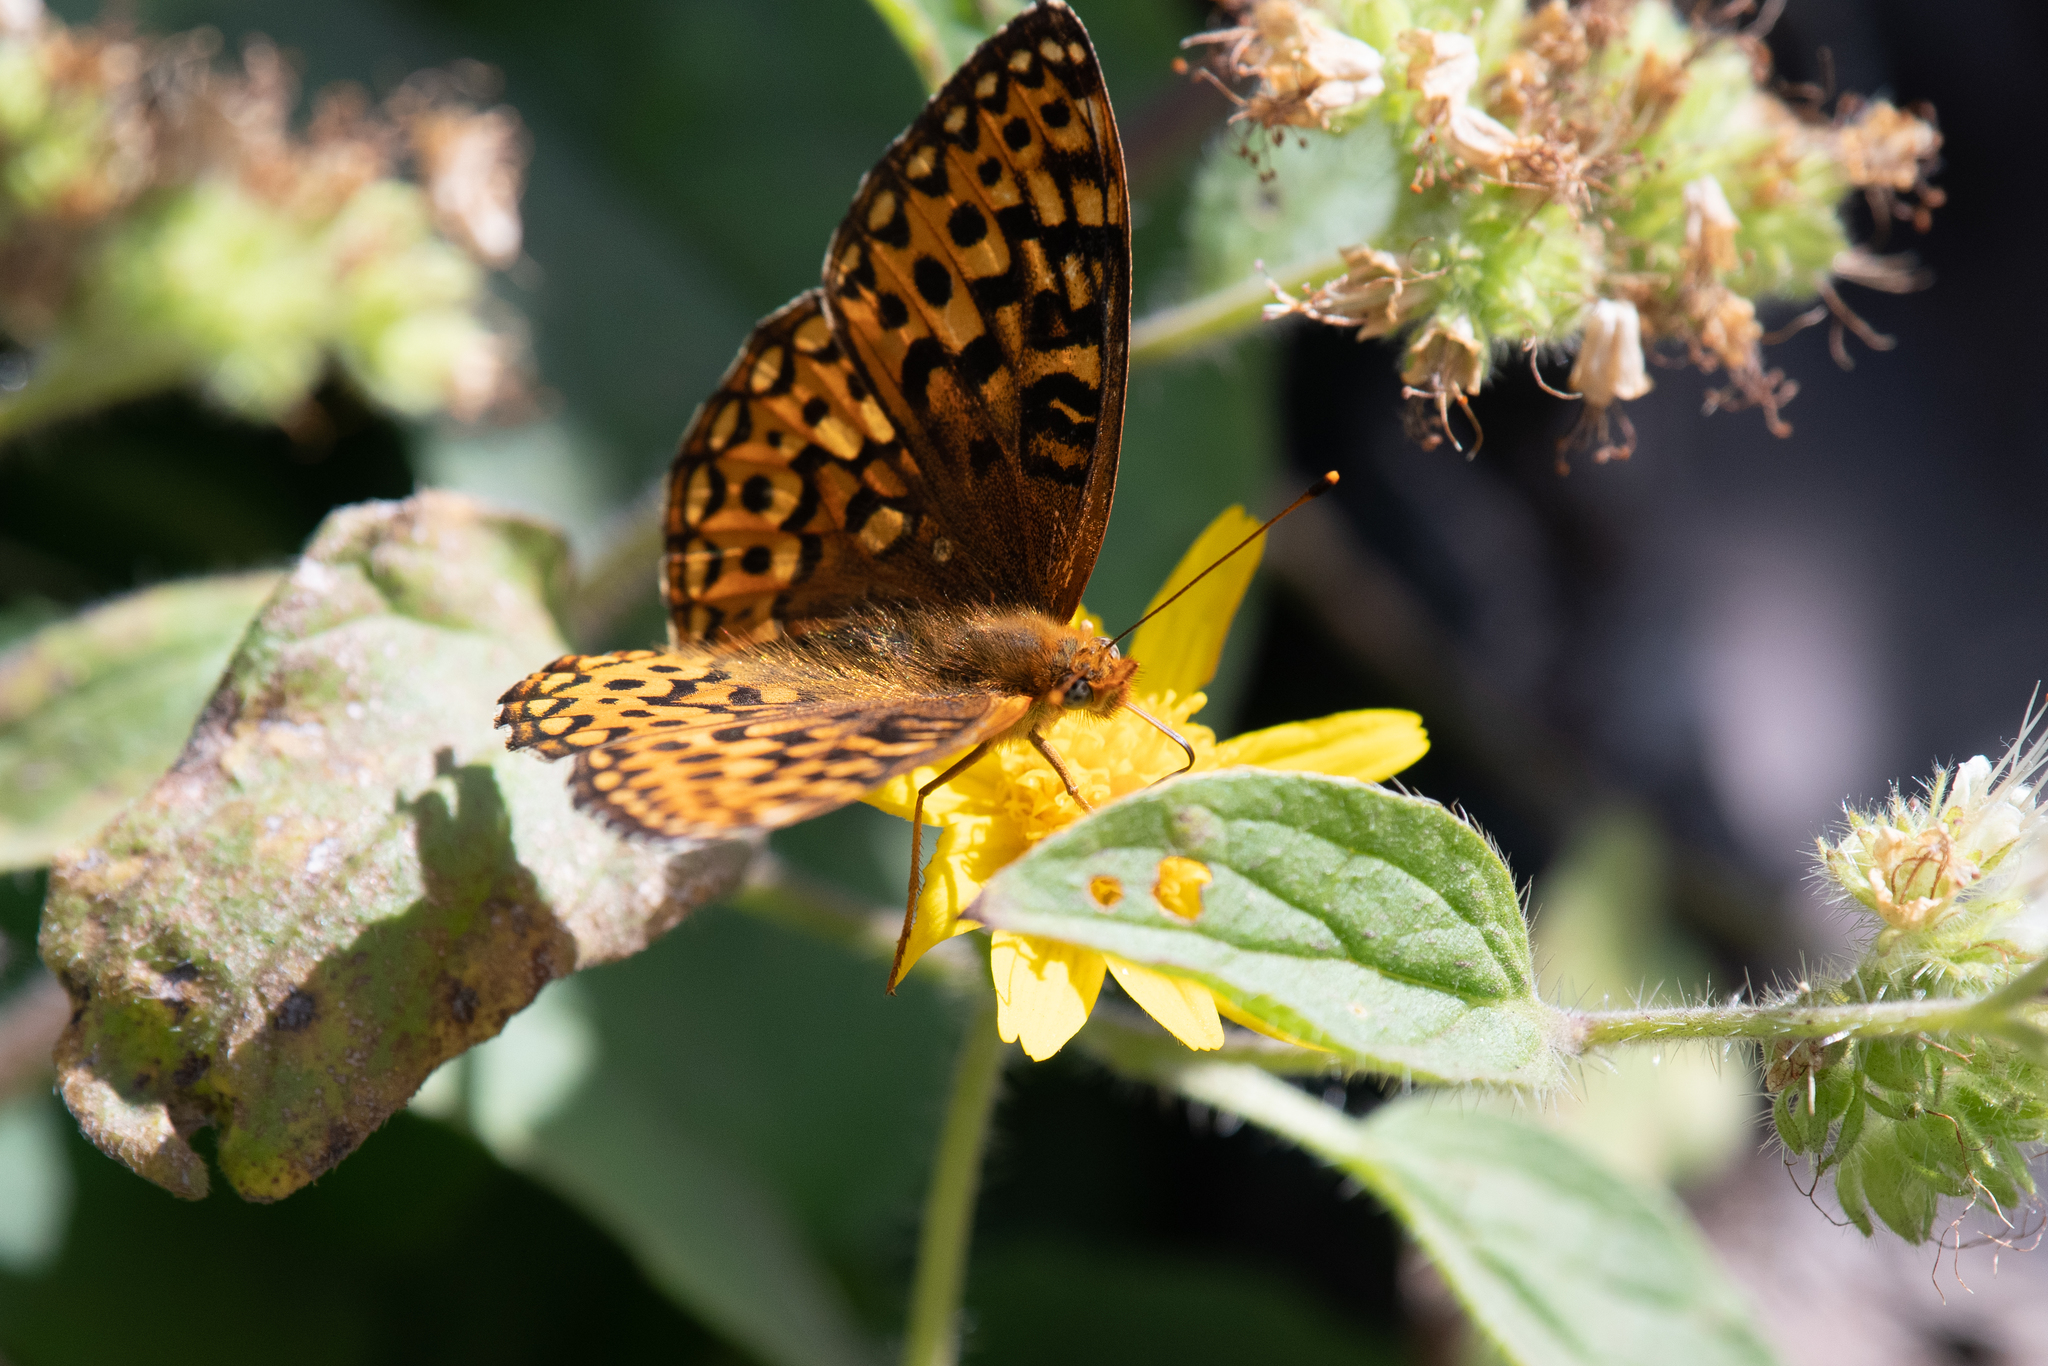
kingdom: Animalia
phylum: Arthropoda
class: Insecta
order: Lepidoptera
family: Nymphalidae
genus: Speyeria
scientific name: Speyeria hydaspe
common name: Hydaspe fritillary
